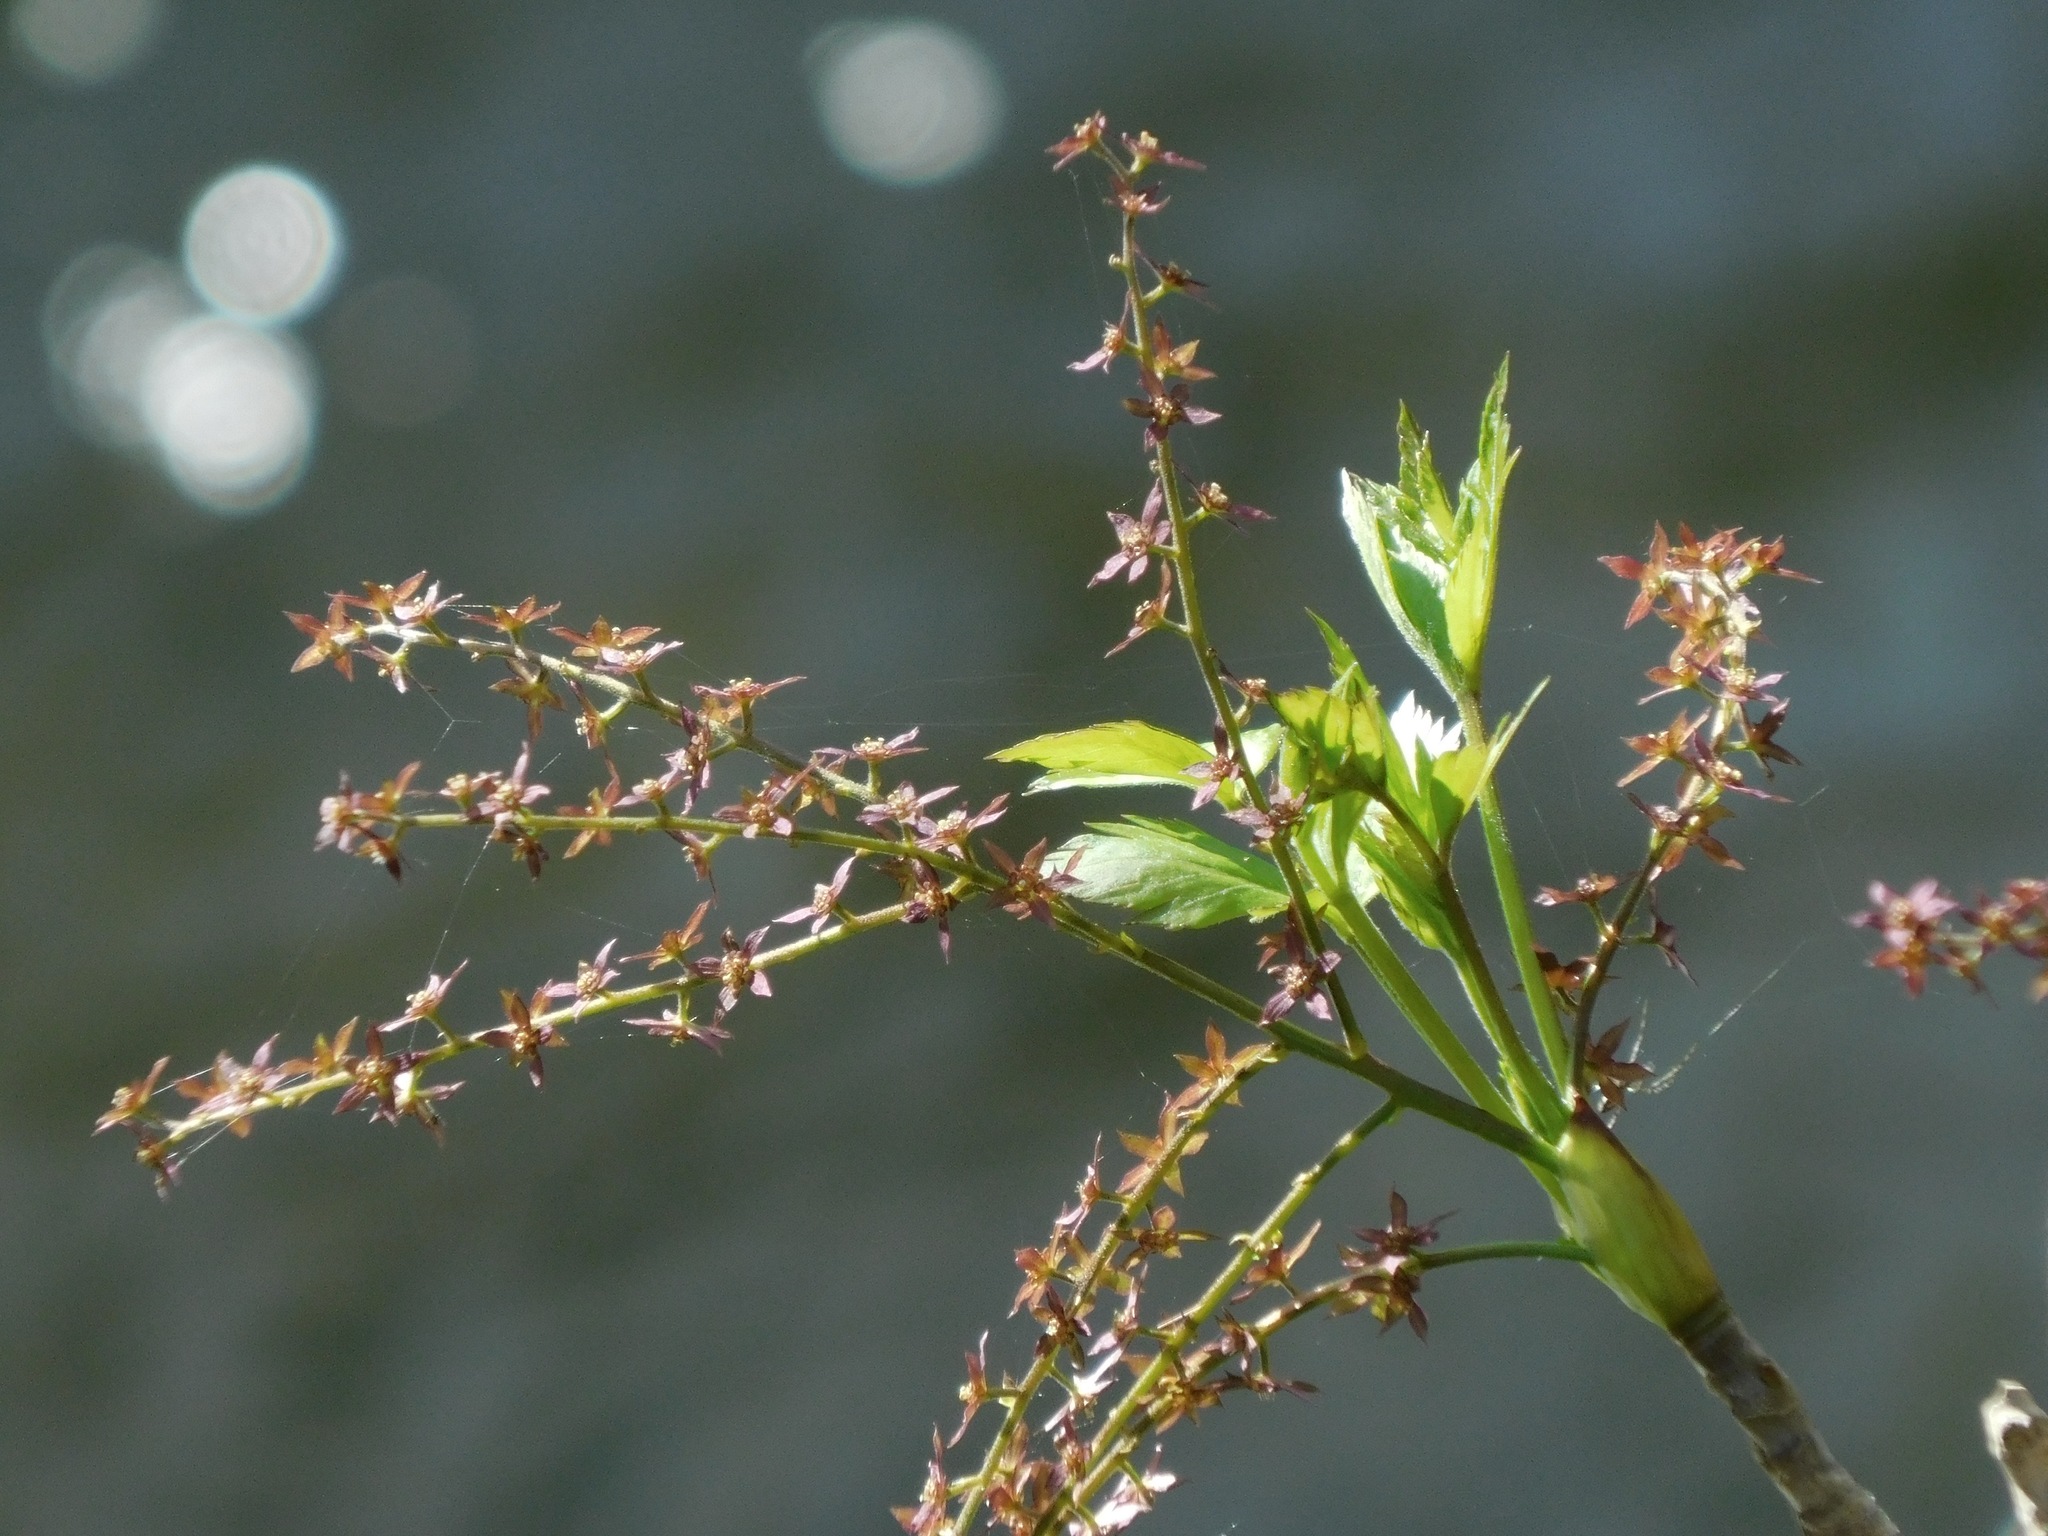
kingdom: Plantae
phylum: Tracheophyta
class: Magnoliopsida
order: Ranunculales
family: Ranunculaceae
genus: Xanthorhiza
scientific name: Xanthorhiza simplicissima
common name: Yellowroot
